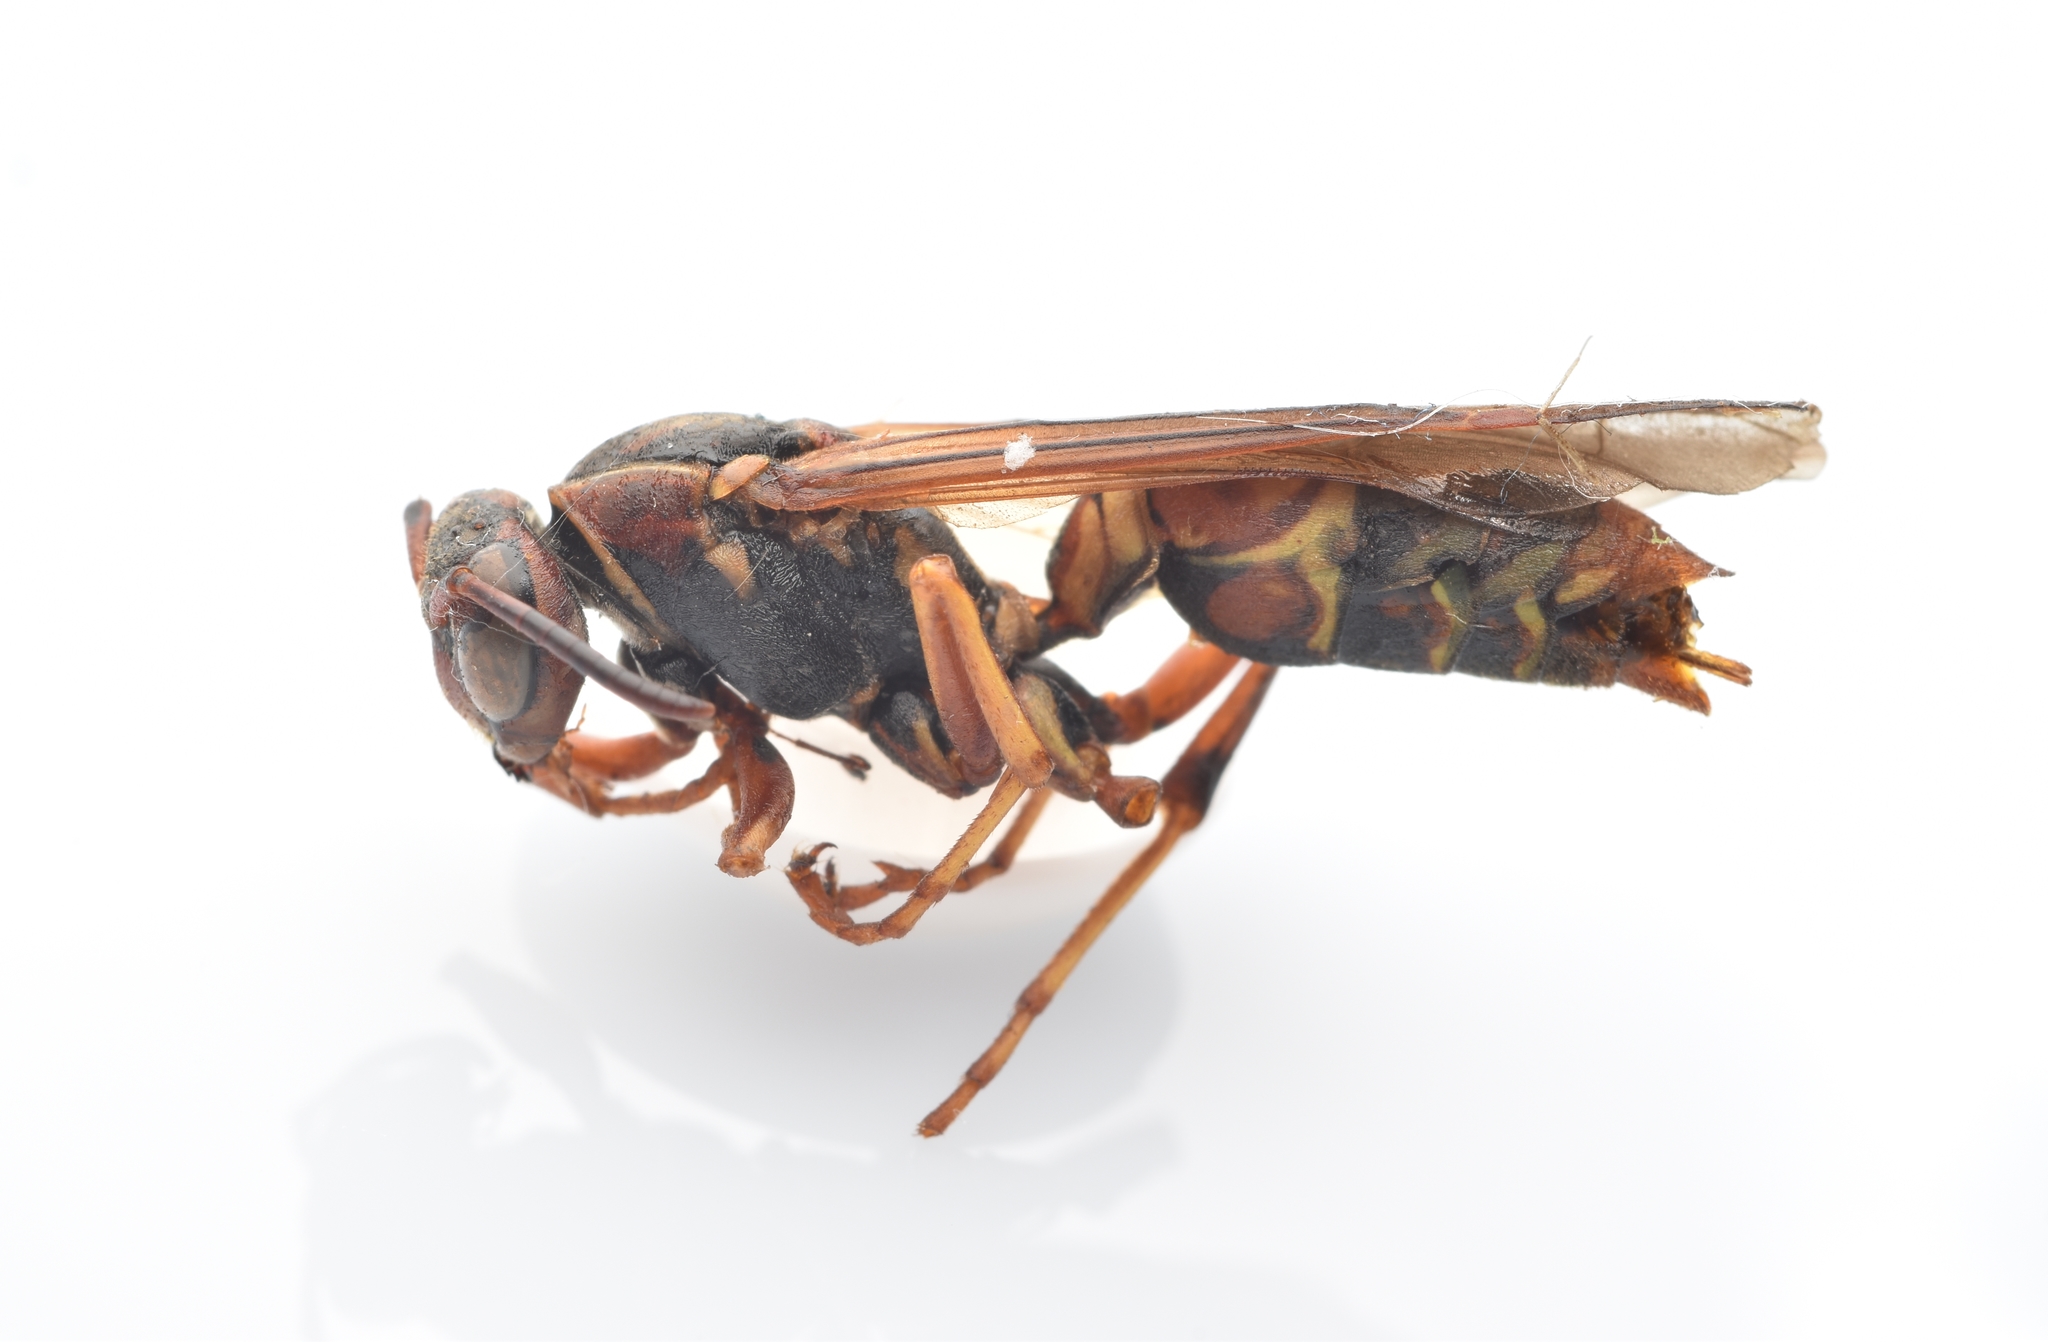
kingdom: Animalia
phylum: Arthropoda
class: Insecta
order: Hymenoptera
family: Eumenidae
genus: Polistes
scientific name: Polistes fuscatus
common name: Dark paper wasp
